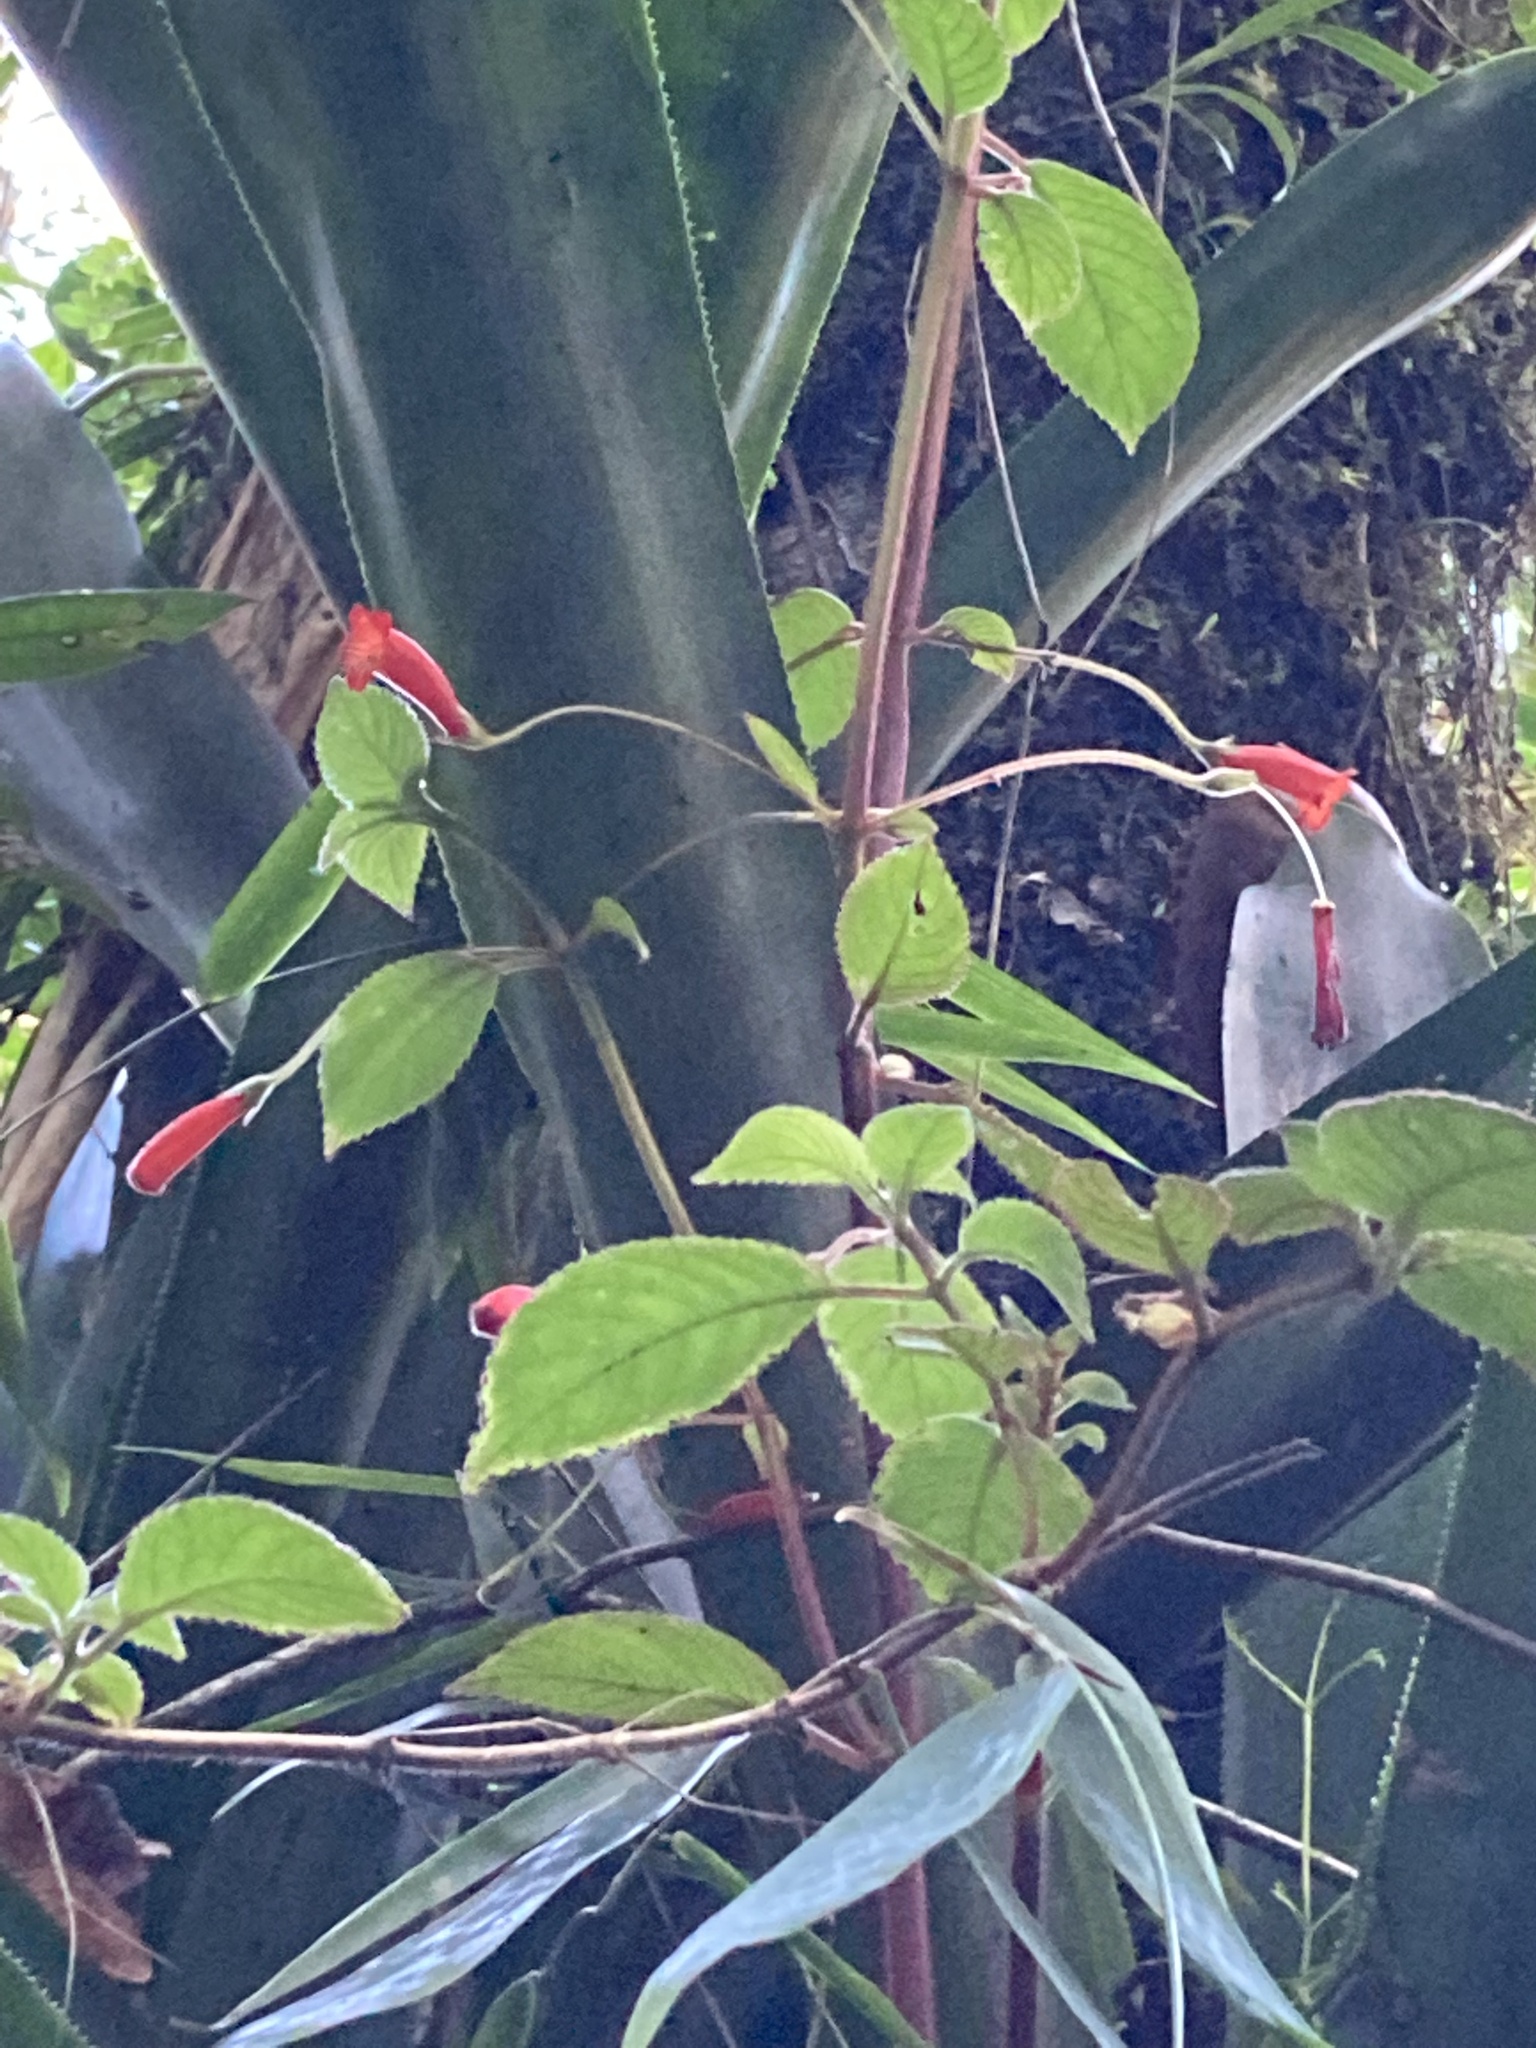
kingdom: Plantae
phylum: Tracheophyta
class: Magnoliopsida
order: Lamiales
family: Gesneriaceae
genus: Moussonia
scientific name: Moussonia elegans
